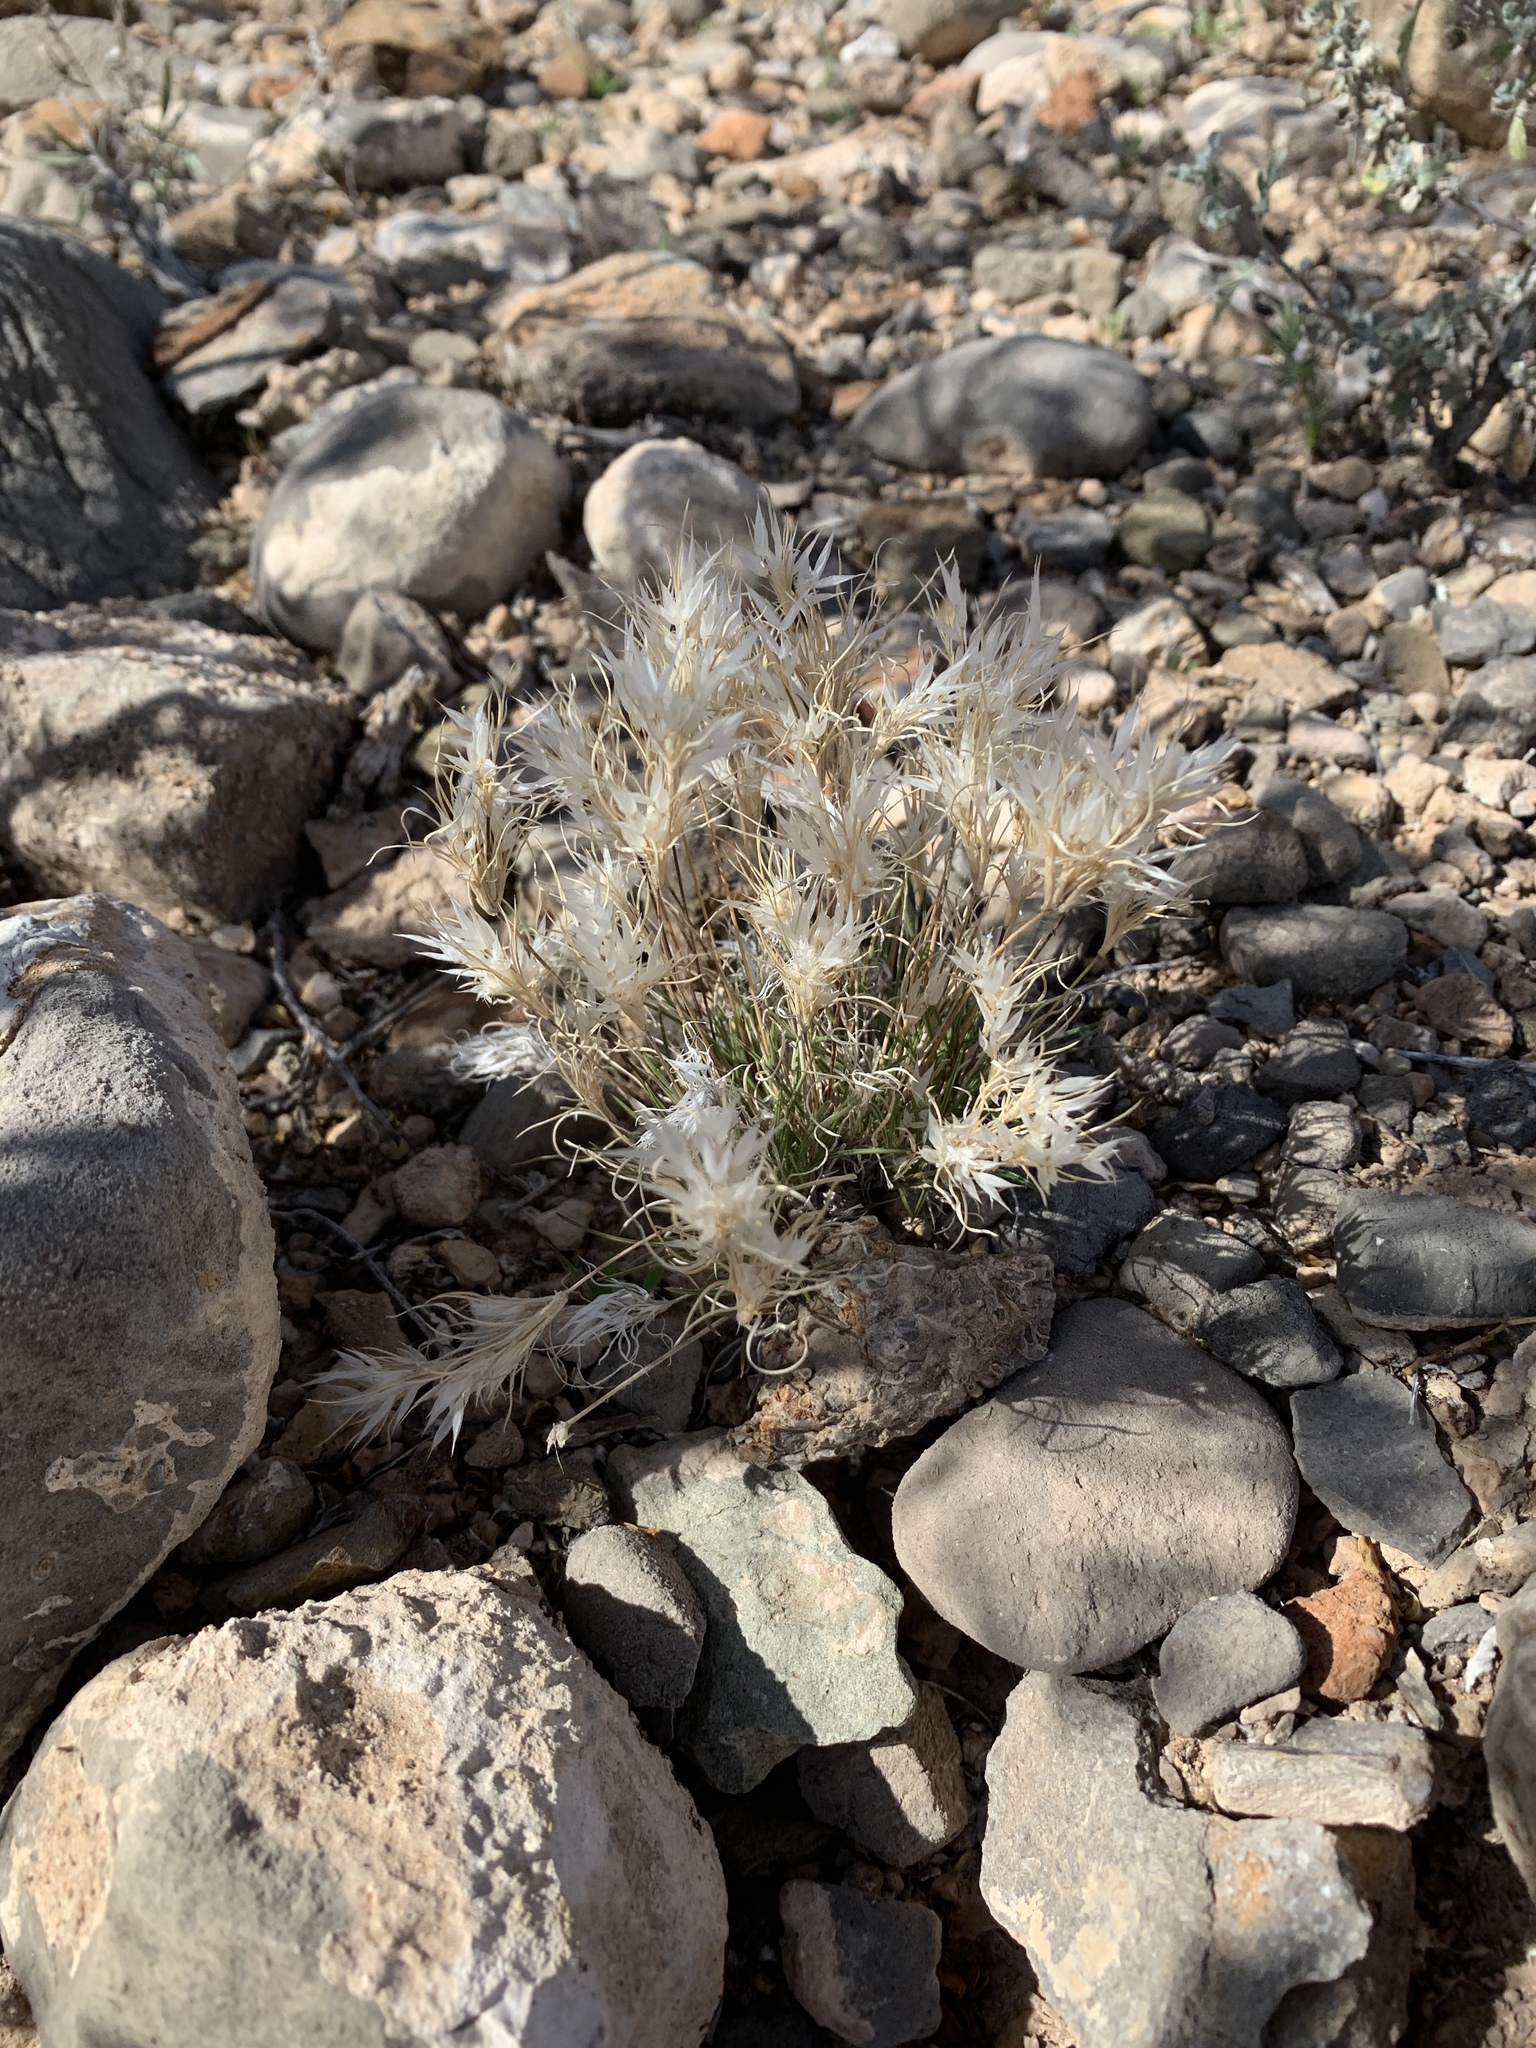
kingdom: Plantae
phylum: Tracheophyta
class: Liliopsida
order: Poales
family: Poaceae
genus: Dasyochloa
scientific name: Dasyochloa pulchella
